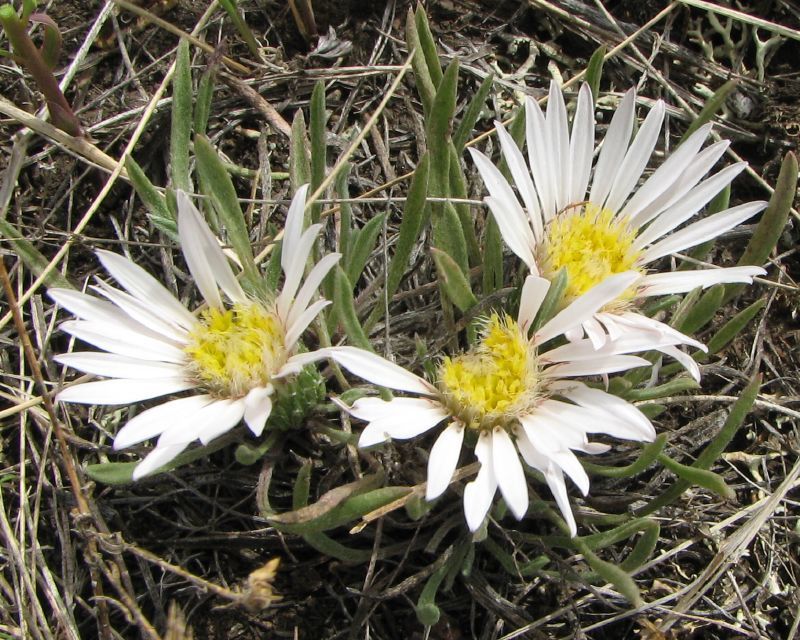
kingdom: Plantae
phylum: Tracheophyta
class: Magnoliopsida
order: Asterales
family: Asteraceae
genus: Townsendia
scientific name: Townsendia exscapa
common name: Dwarf townsendia
